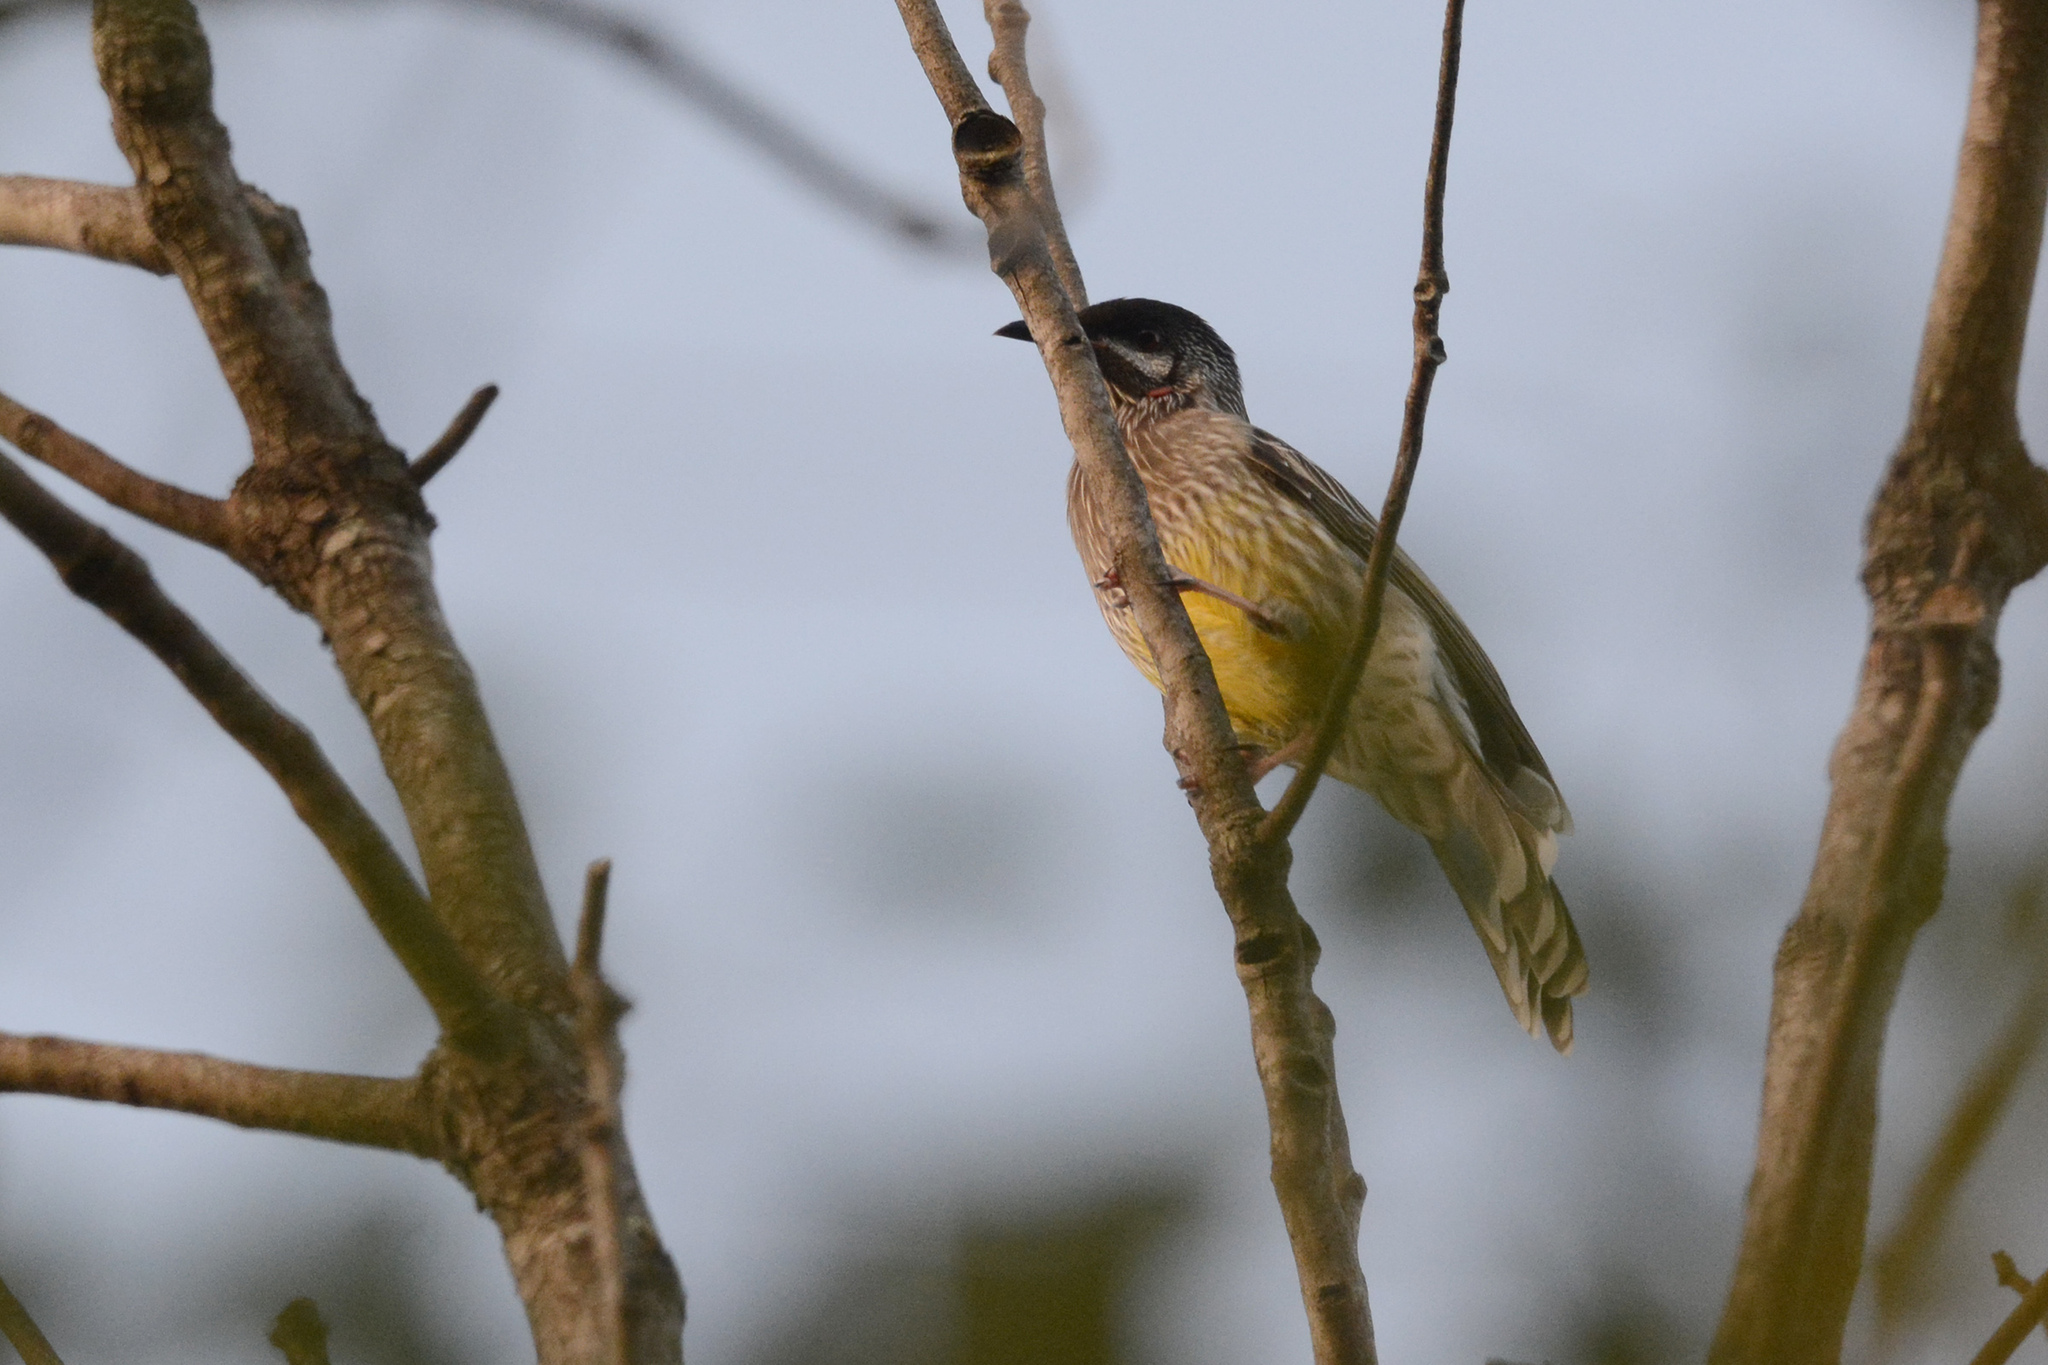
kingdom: Animalia
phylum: Chordata
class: Aves
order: Passeriformes
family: Meliphagidae
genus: Anthochaera
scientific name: Anthochaera carunculata
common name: Red wattlebird
